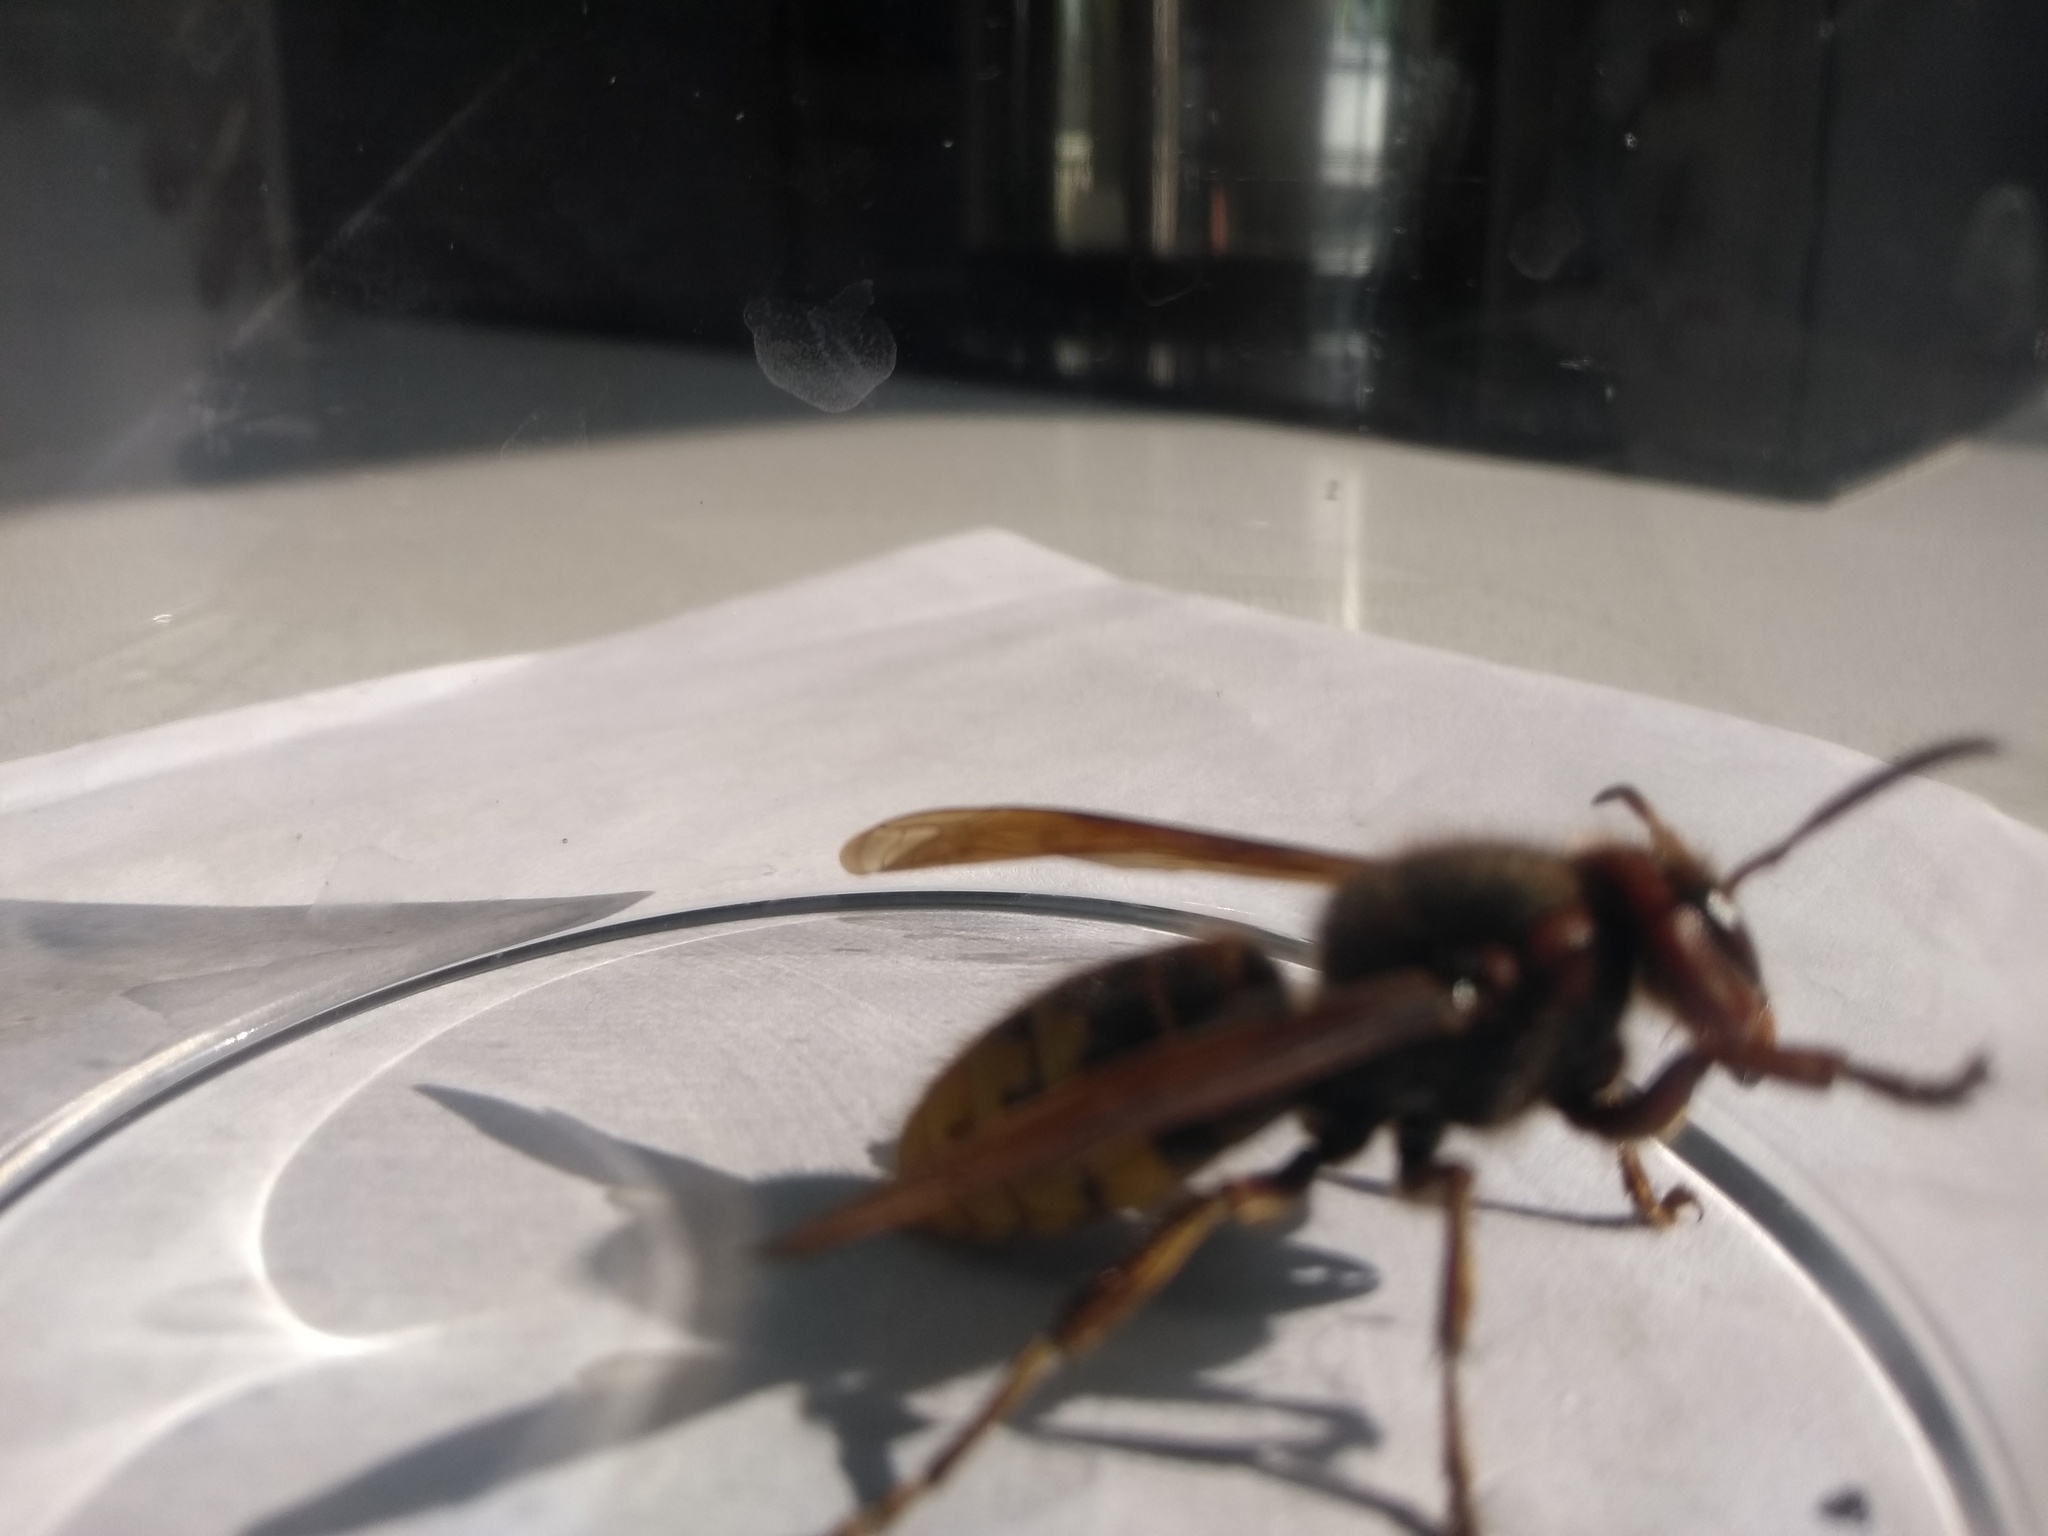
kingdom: Animalia
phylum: Arthropoda
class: Insecta
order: Hymenoptera
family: Vespidae
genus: Vespa
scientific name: Vespa crabro
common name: Hornet
